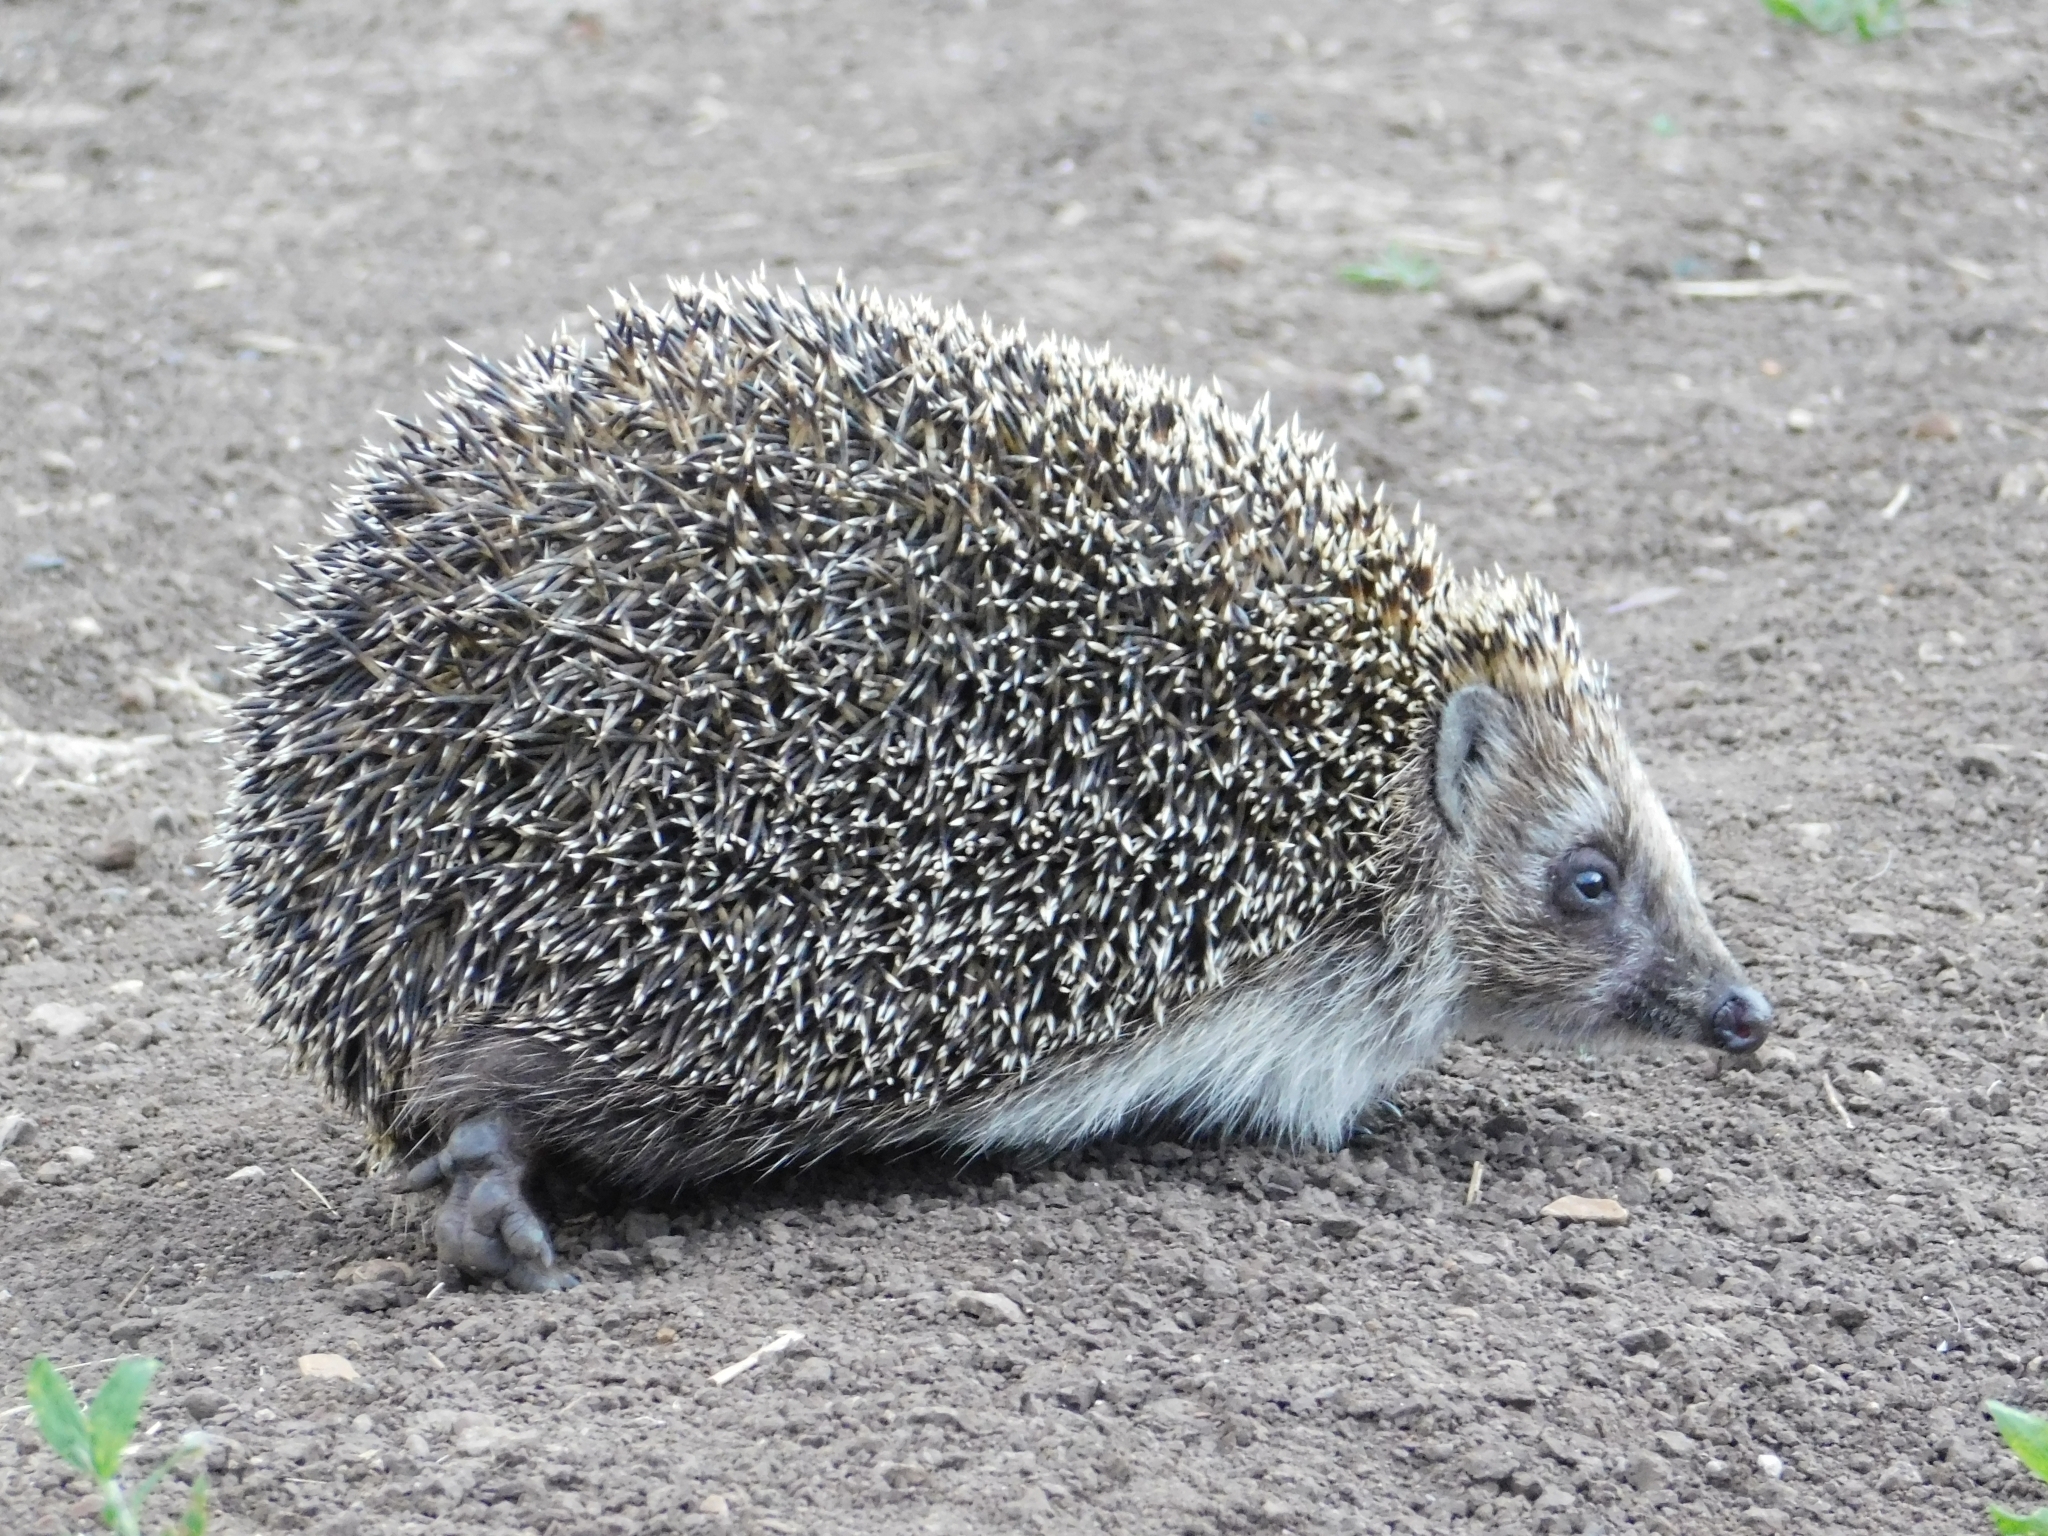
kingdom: Animalia
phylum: Chordata
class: Mammalia
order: Erinaceomorpha
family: Erinaceidae
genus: Erinaceus
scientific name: Erinaceus roumanicus
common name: Northern white-breasted hedgehog
